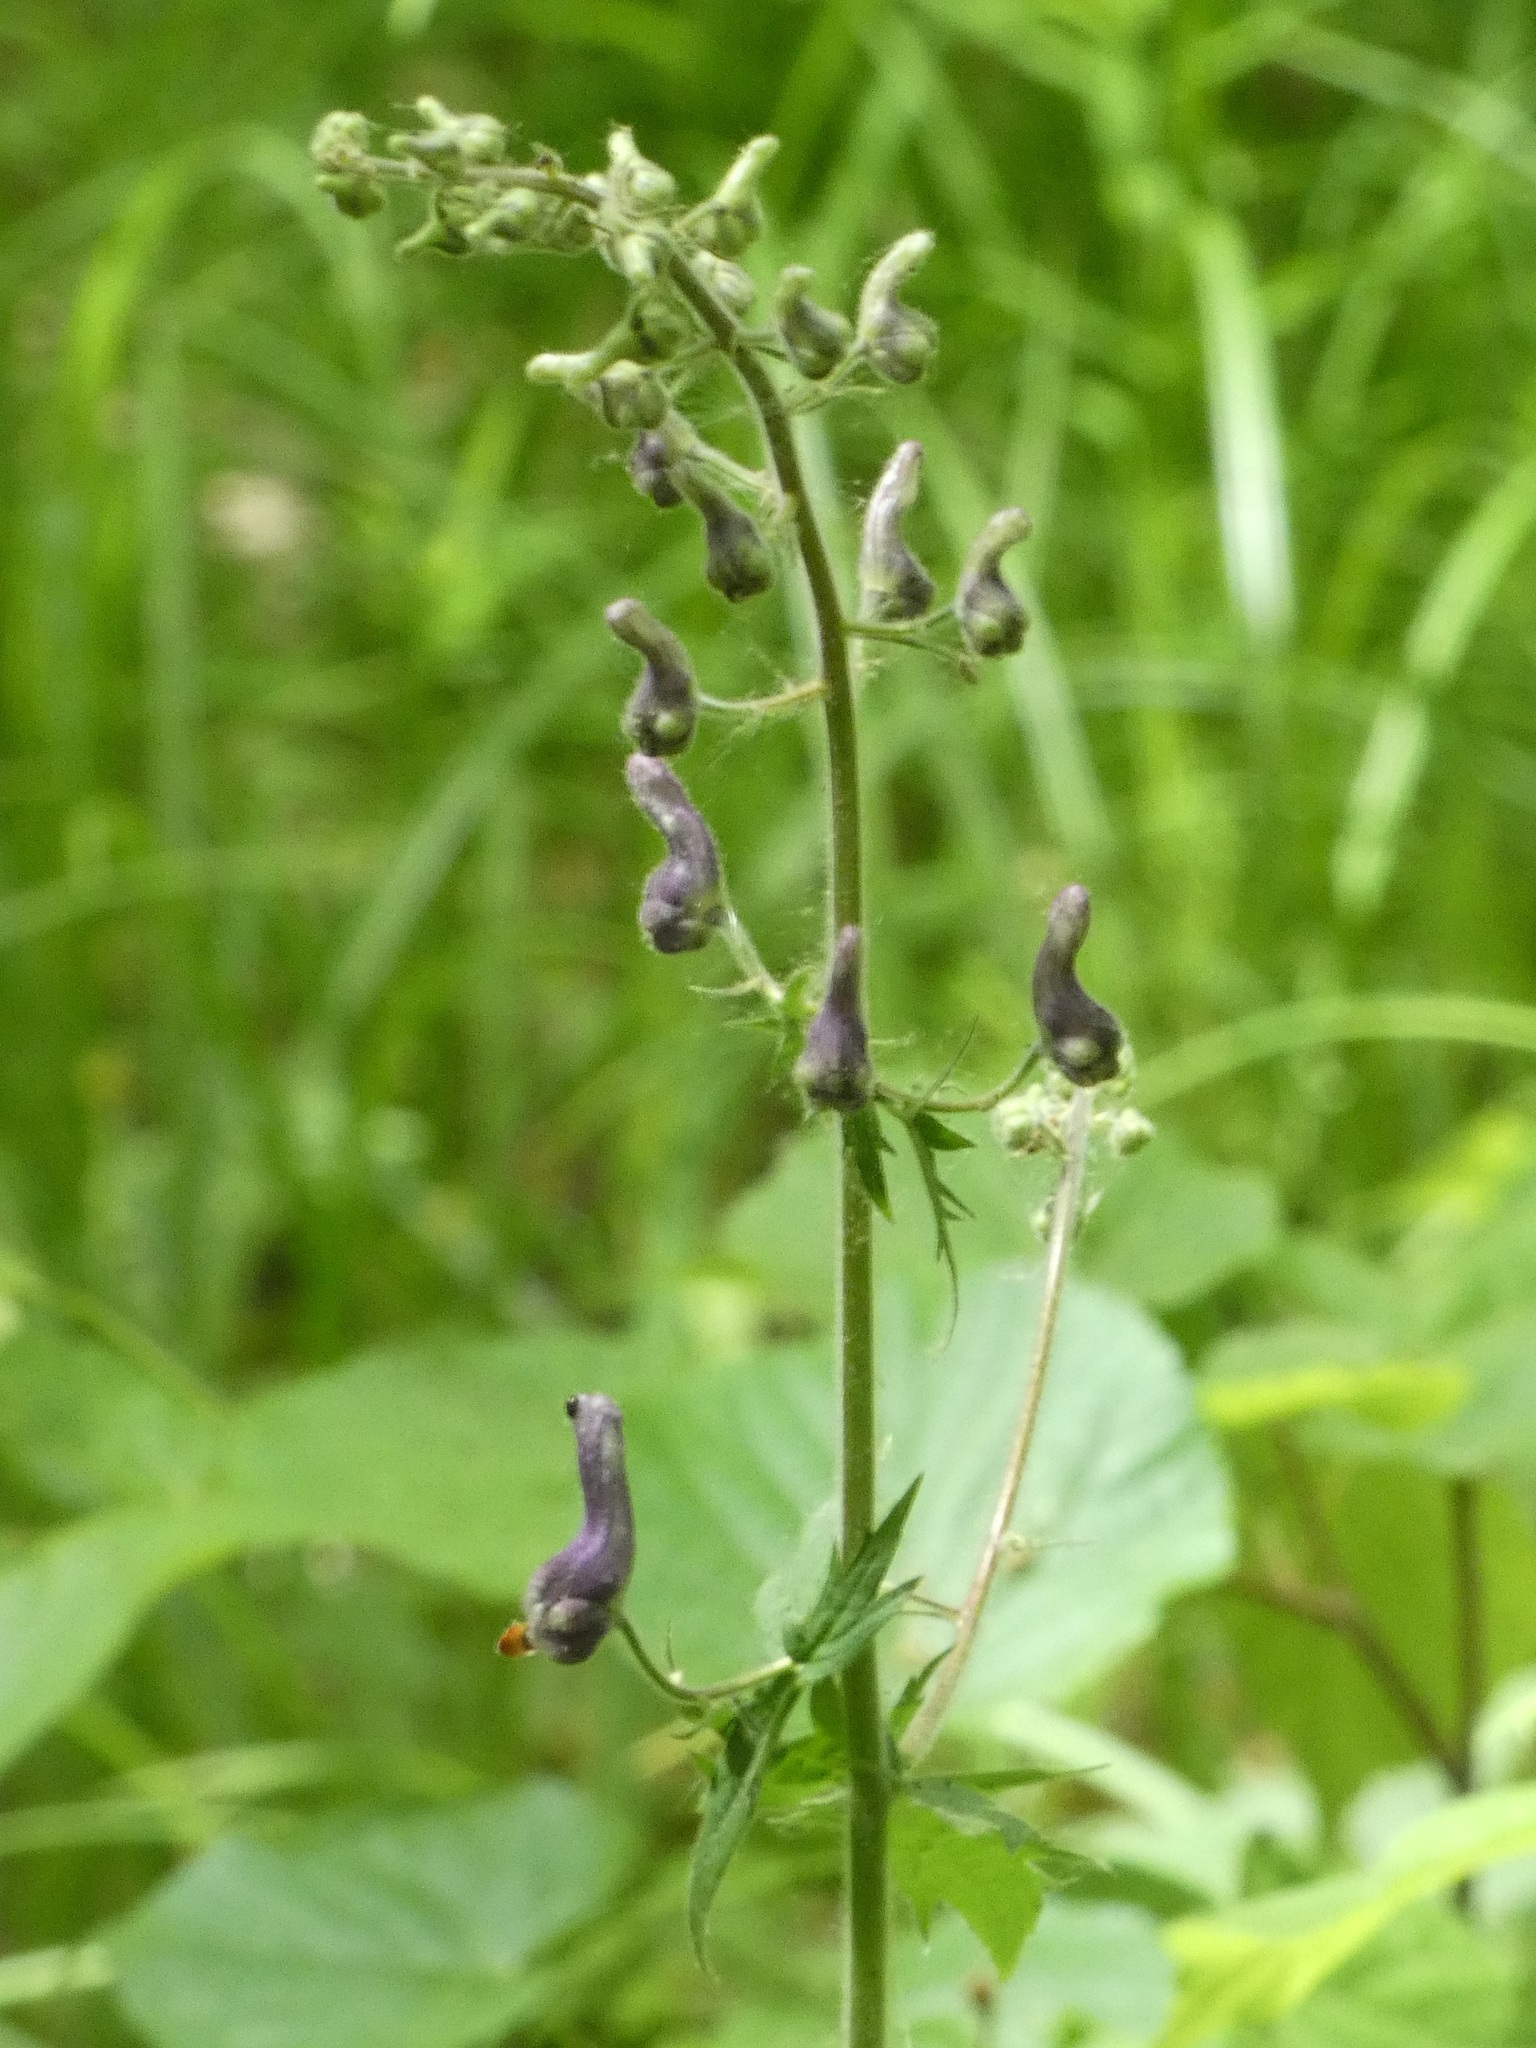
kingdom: Plantae
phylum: Tracheophyta
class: Magnoliopsida
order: Ranunculales
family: Ranunculaceae
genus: Aconitum
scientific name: Aconitum septentrionale
